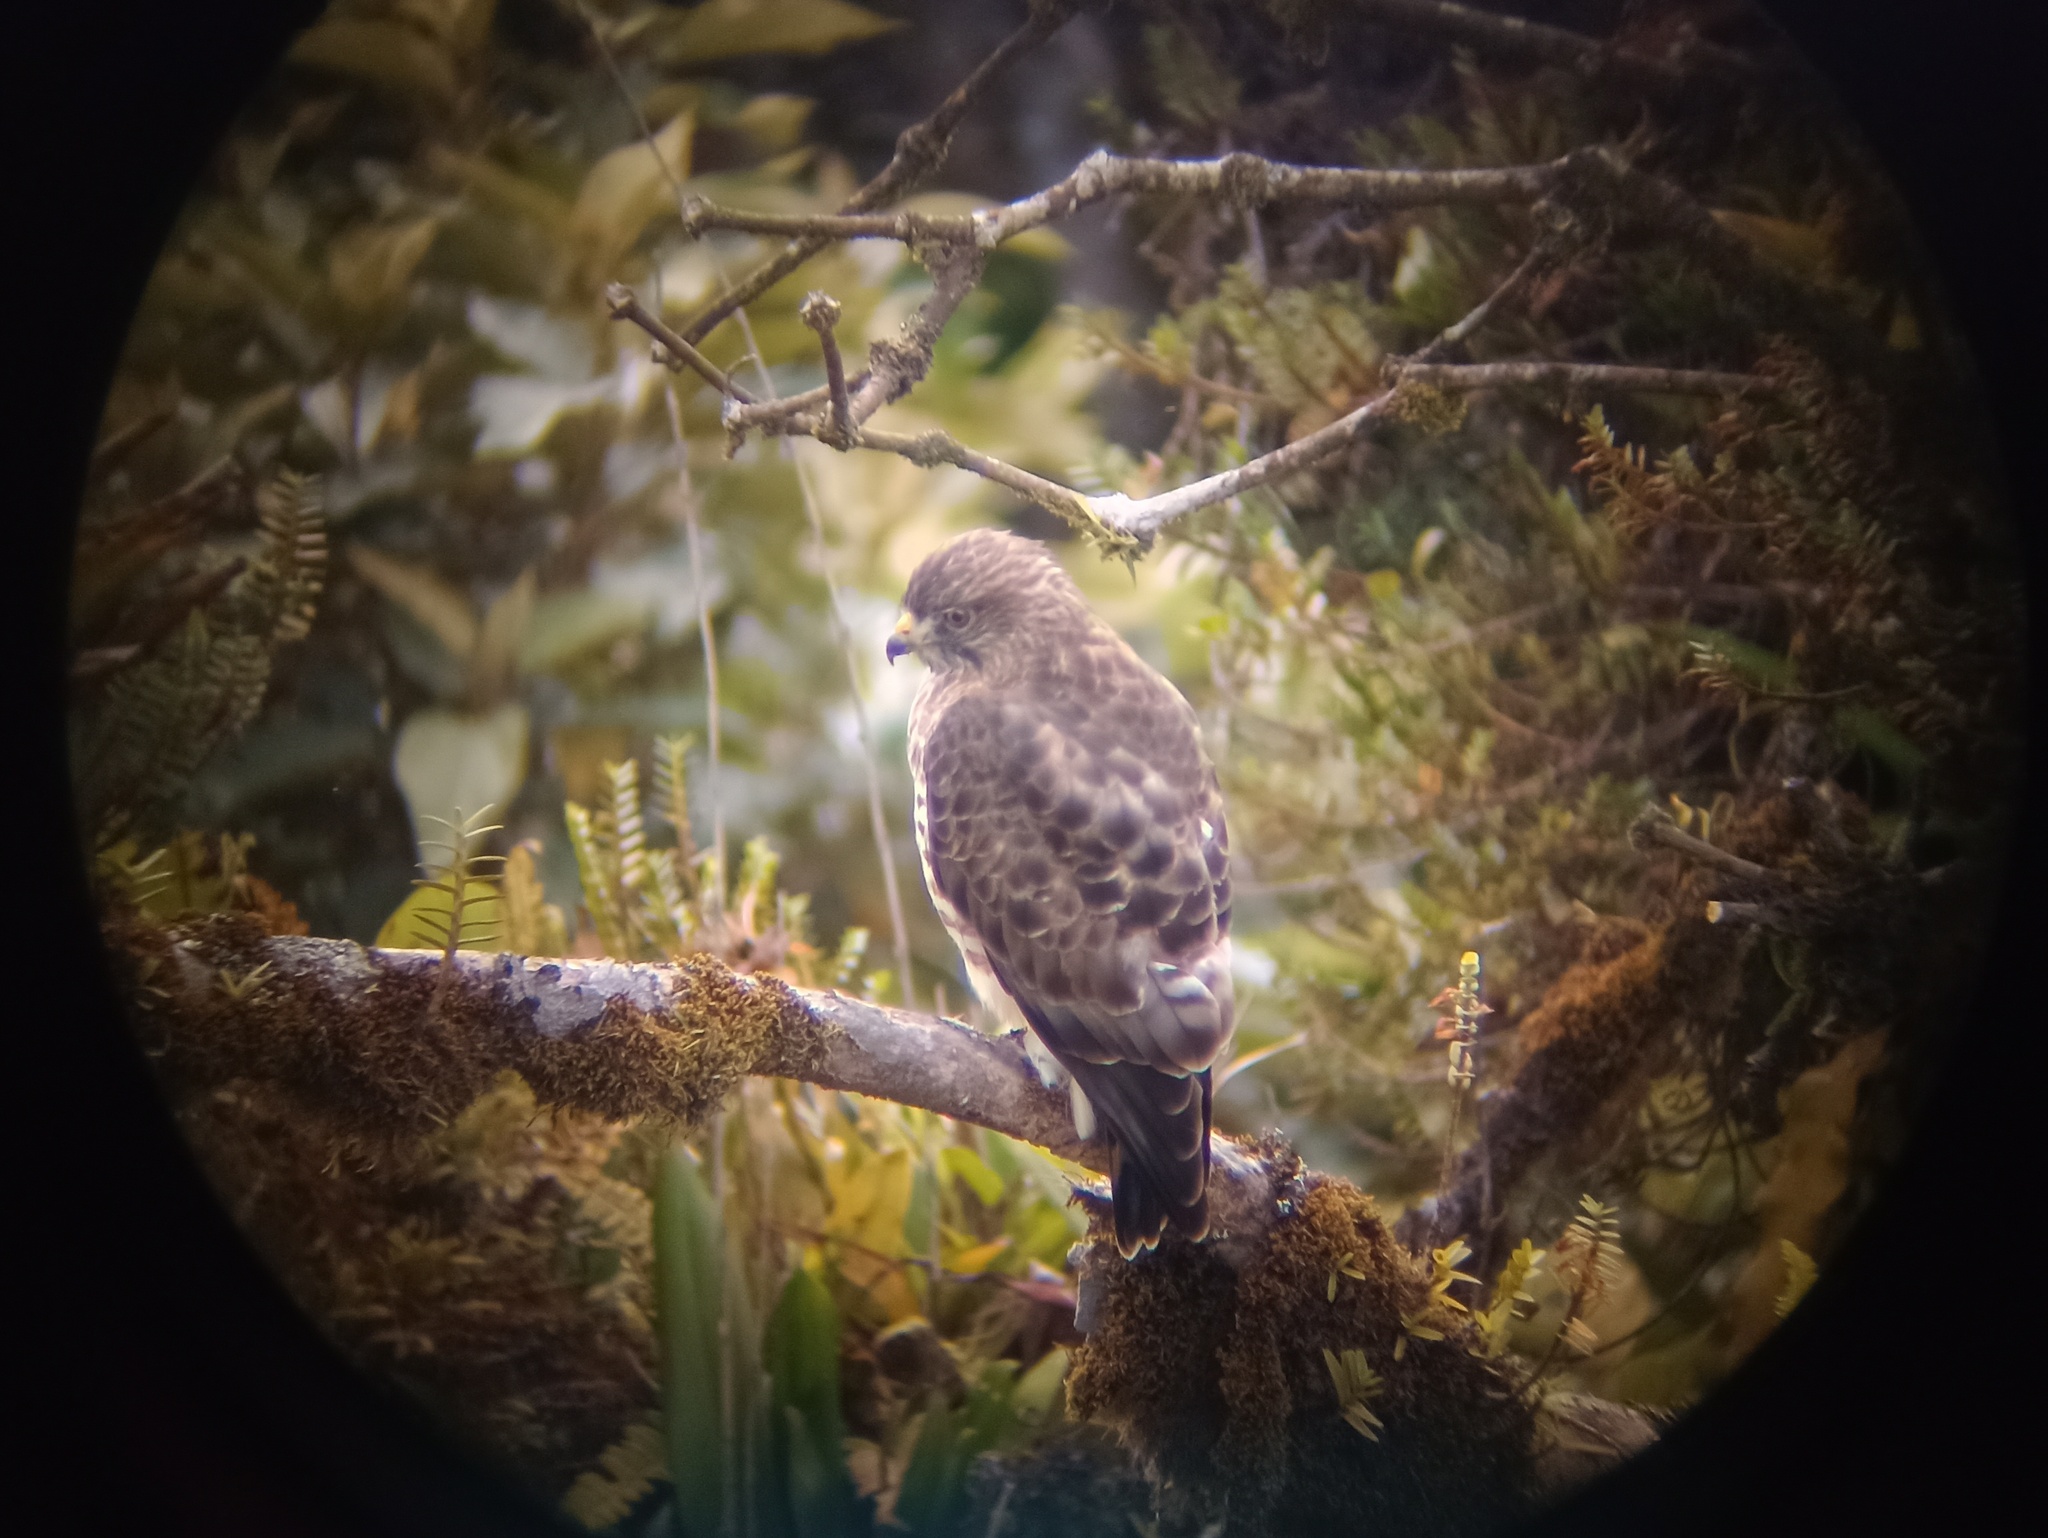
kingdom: Animalia
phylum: Chordata
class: Aves
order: Accipitriformes
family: Accipitridae
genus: Buteo
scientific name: Buteo platypterus
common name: Broad-winged hawk
